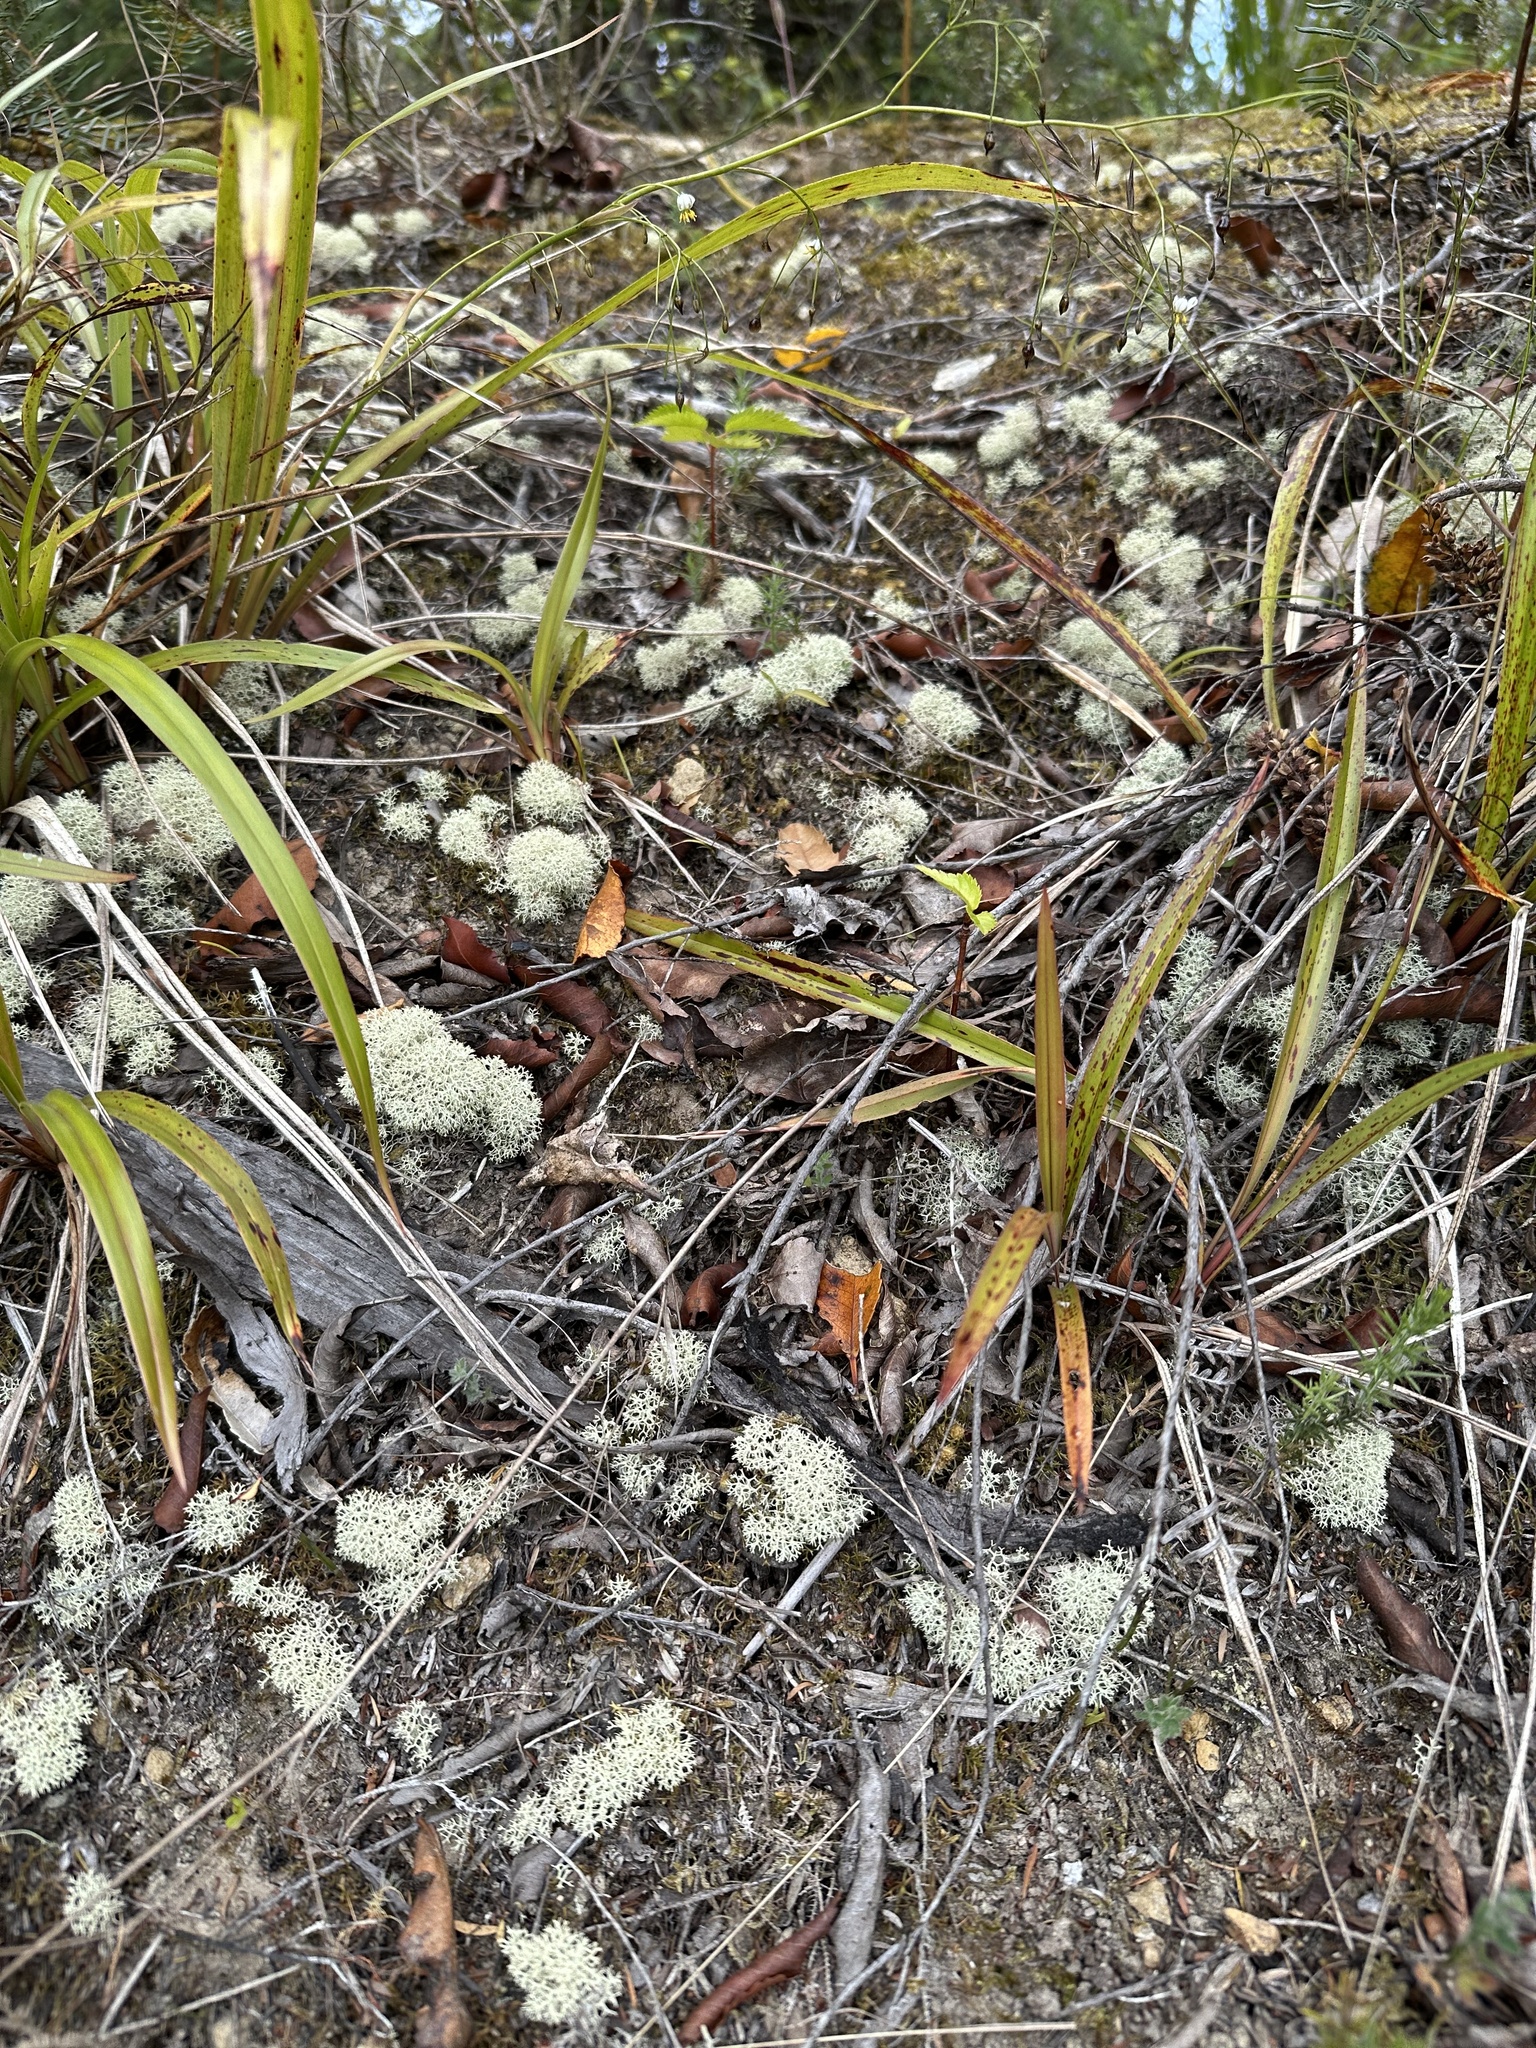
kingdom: Fungi
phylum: Ascomycota
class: Lecanoromycetes
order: Lecanorales
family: Cladoniaceae
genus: Cladonia
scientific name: Cladonia confusa
